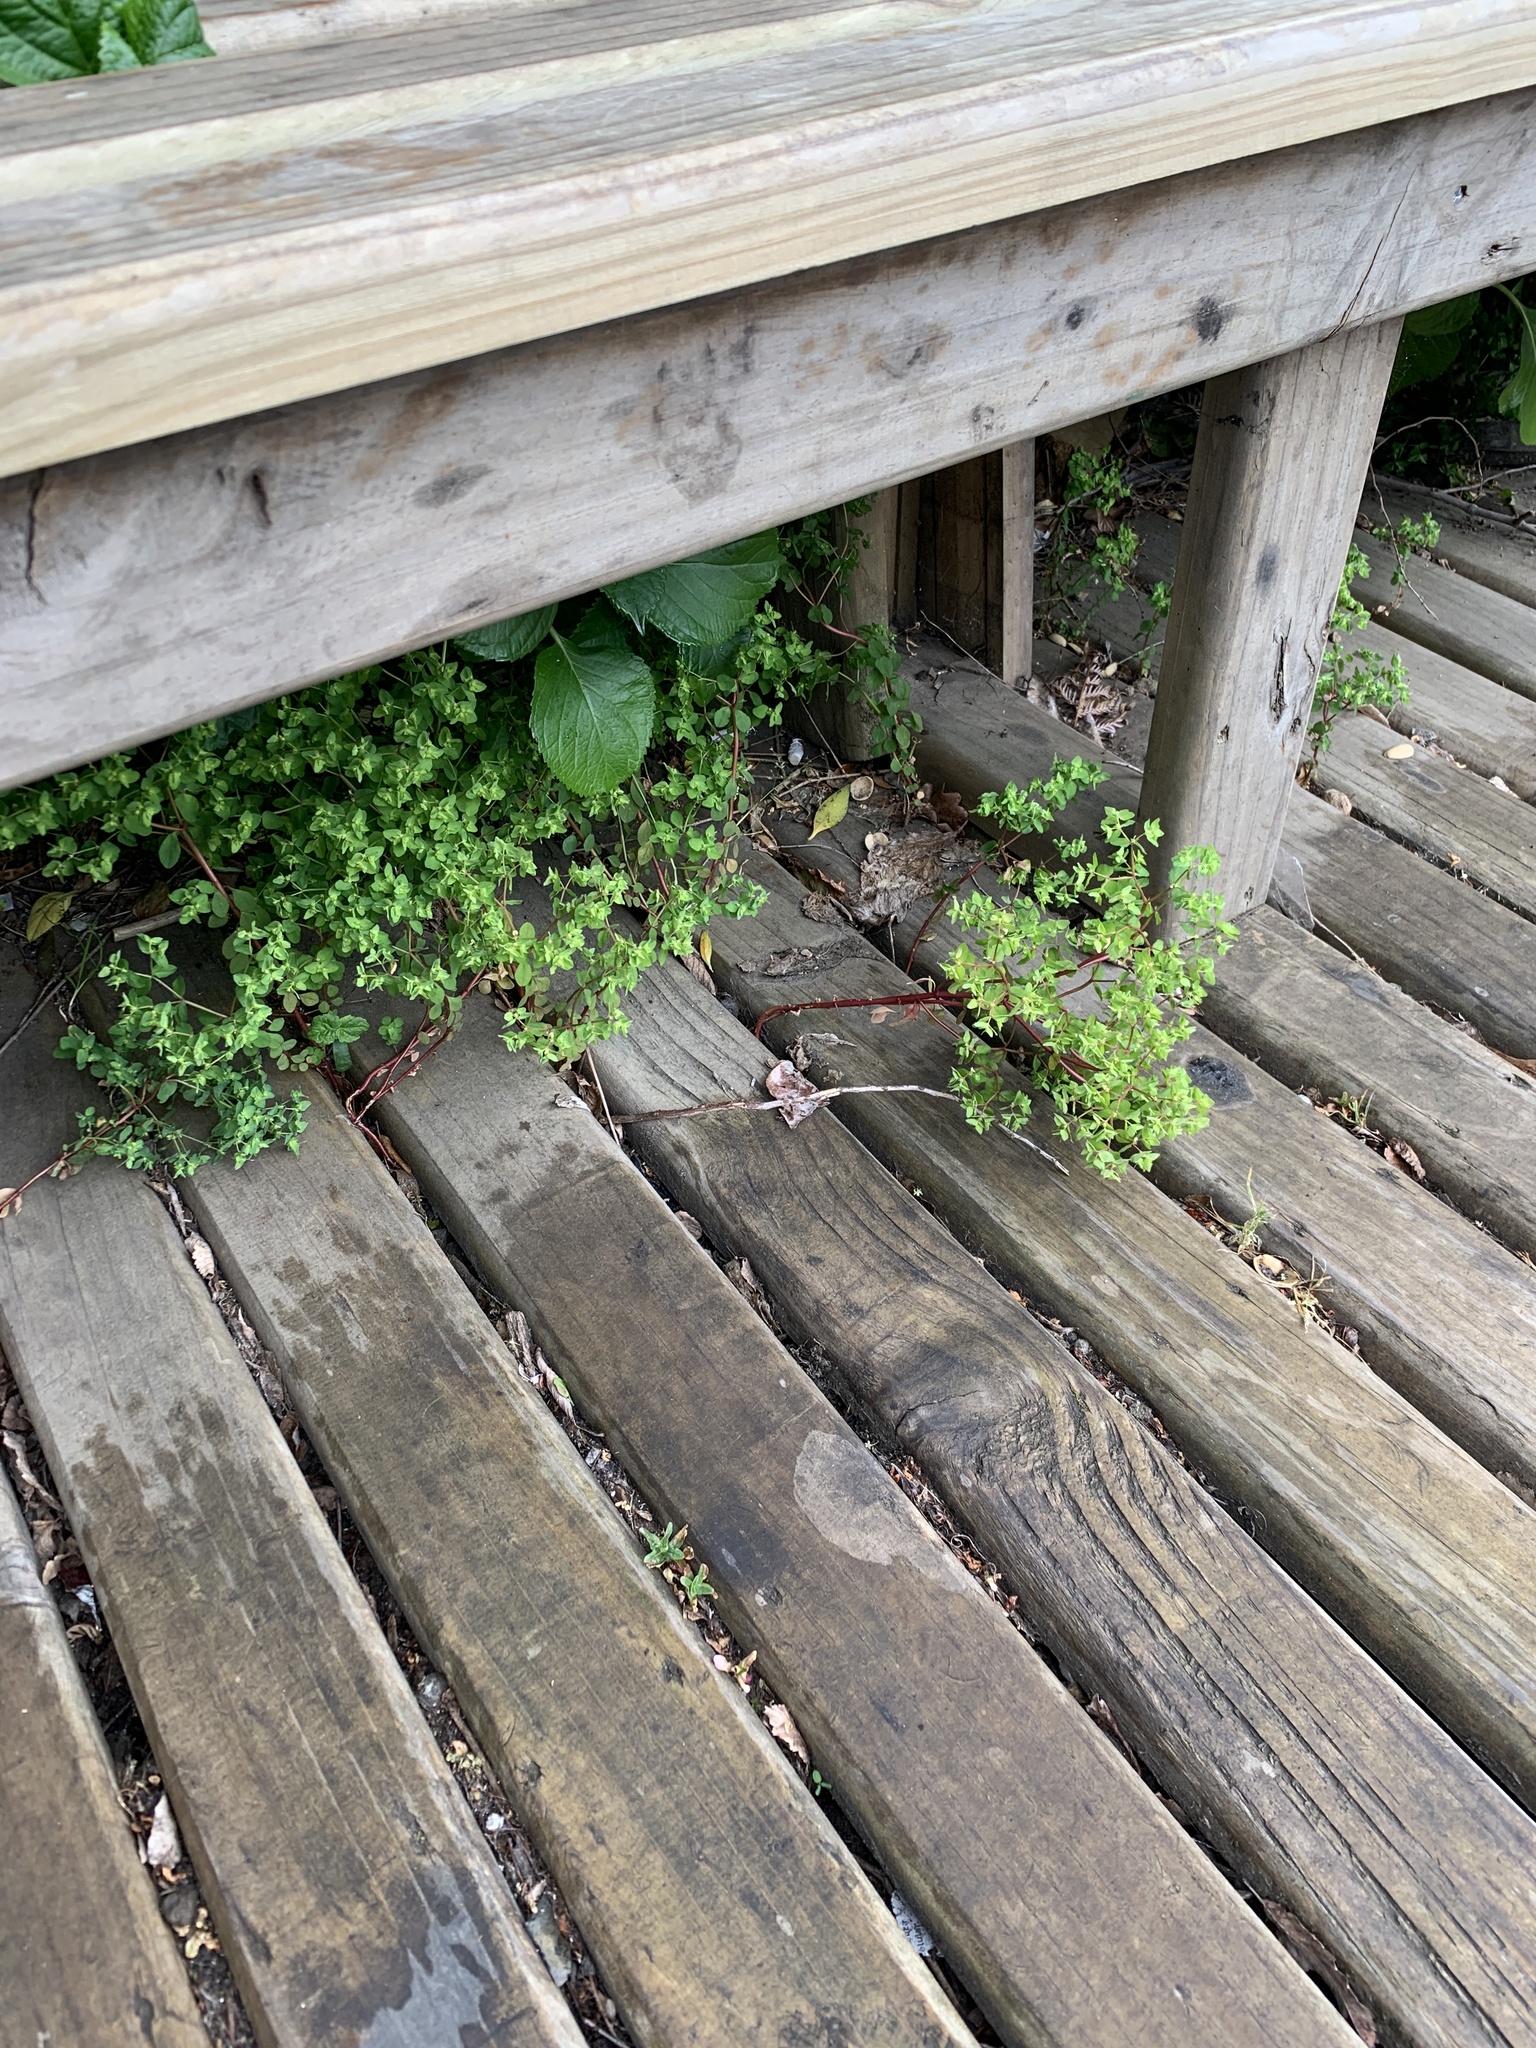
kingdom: Plantae
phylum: Tracheophyta
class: Magnoliopsida
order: Malpighiales
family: Euphorbiaceae
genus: Euphorbia
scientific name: Euphorbia peplus
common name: Petty spurge
